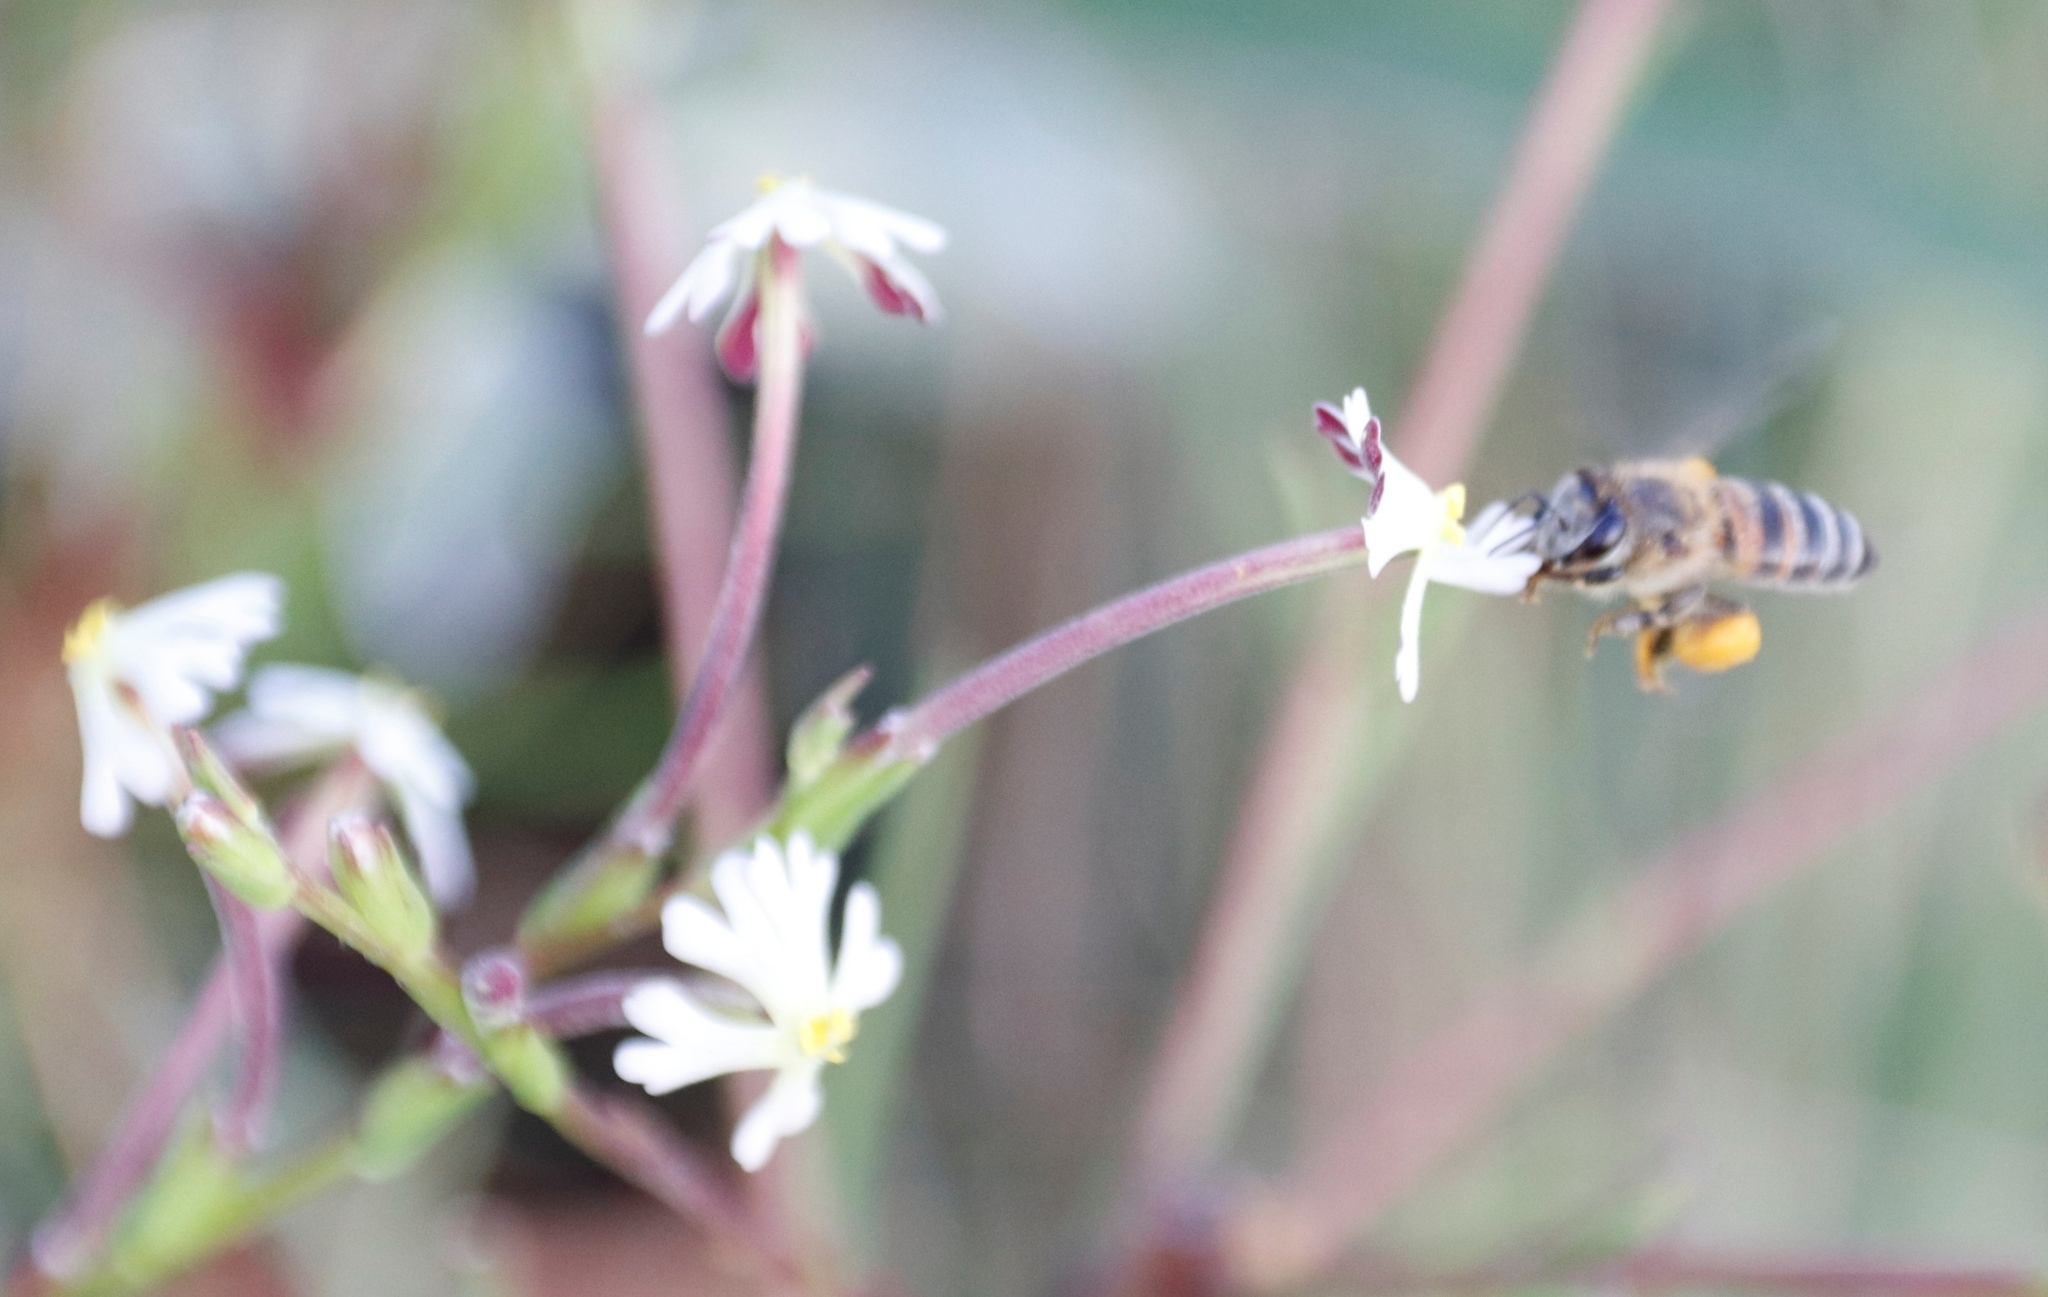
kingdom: Animalia
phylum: Arthropoda
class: Insecta
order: Hymenoptera
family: Apidae
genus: Apis
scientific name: Apis mellifera
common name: Honey bee
